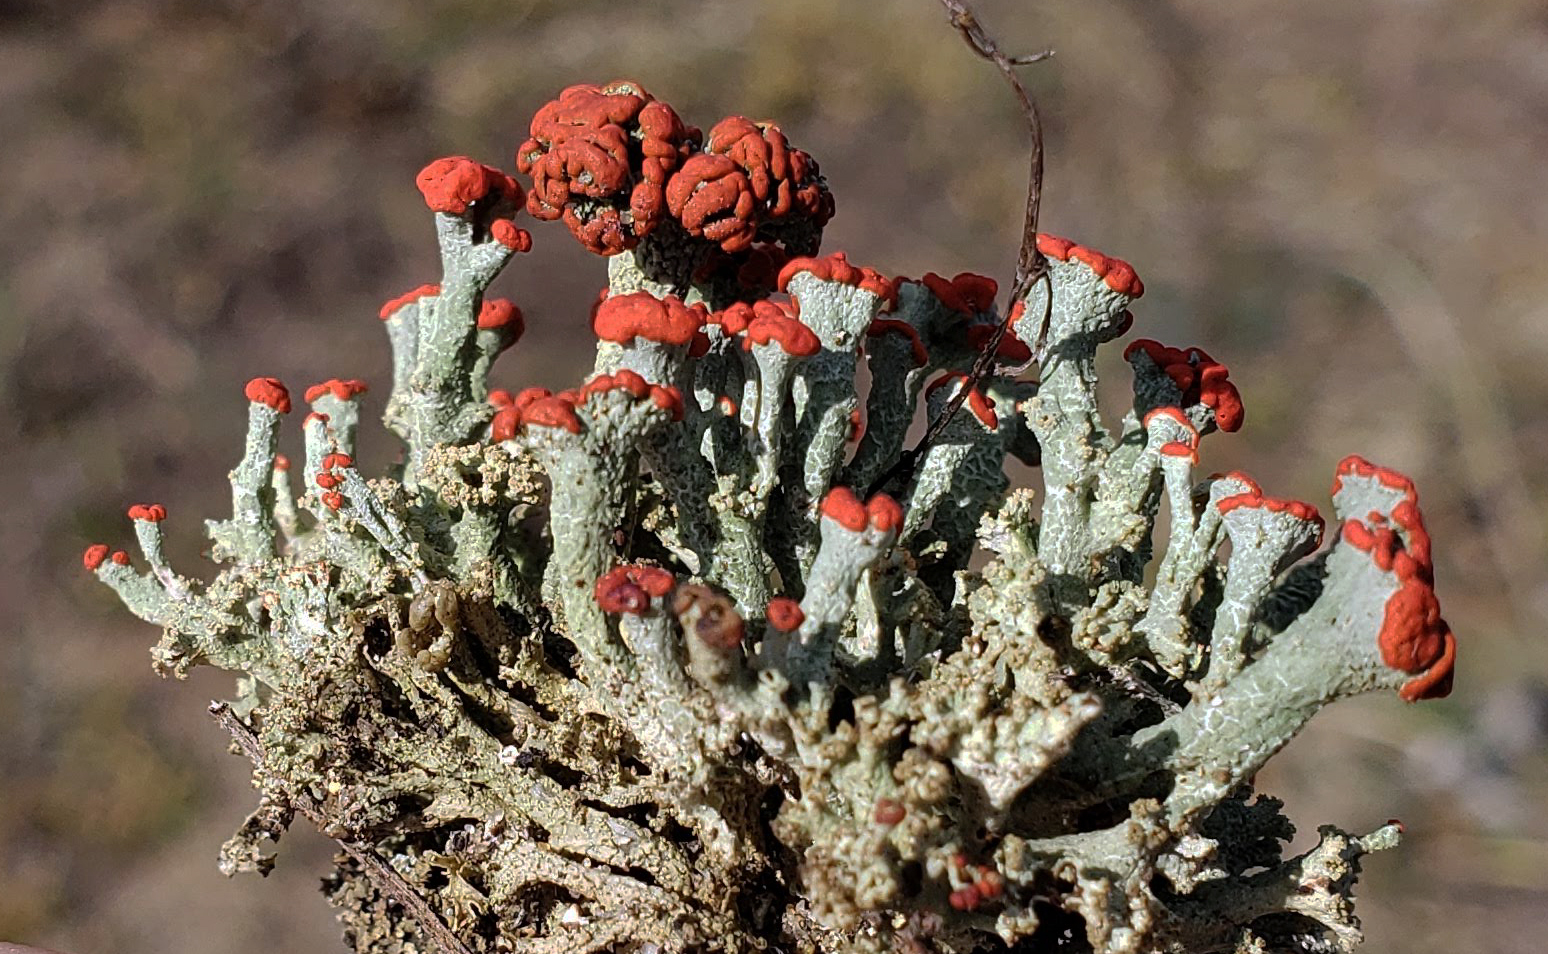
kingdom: Fungi
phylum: Ascomycota
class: Lecanoromycetes
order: Lecanorales
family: Cladoniaceae
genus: Cladonia
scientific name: Cladonia cristatella
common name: British soldier lichen
